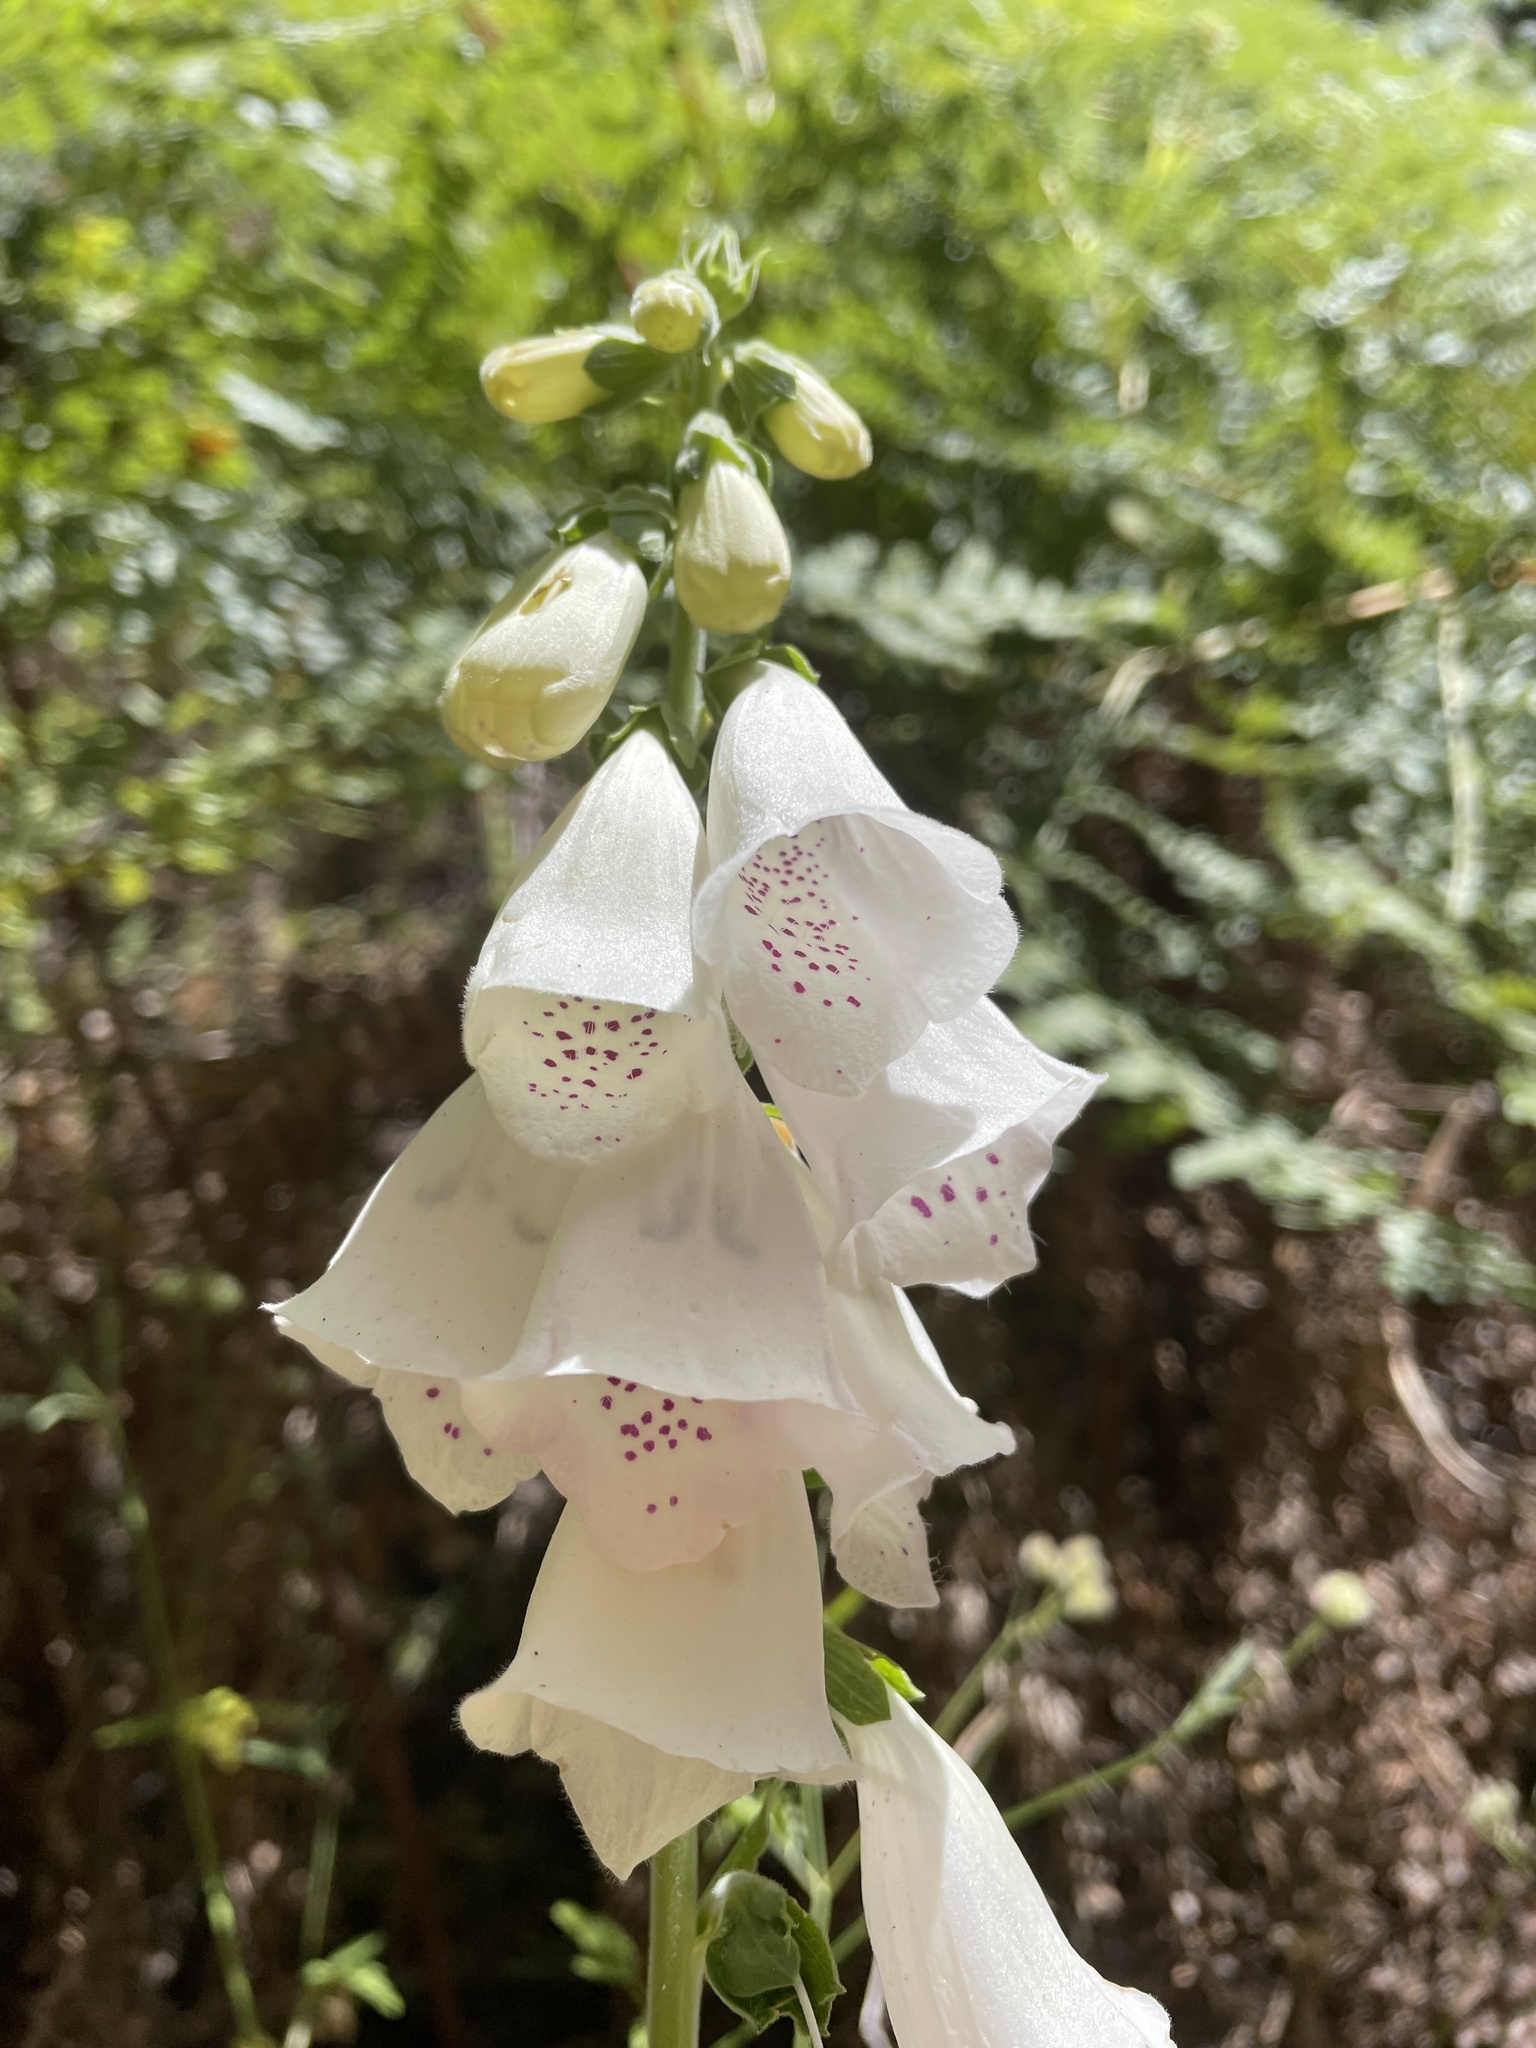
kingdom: Plantae
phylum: Tracheophyta
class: Magnoliopsida
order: Lamiales
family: Plantaginaceae
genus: Digitalis
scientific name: Digitalis purpurea
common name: Foxglove
